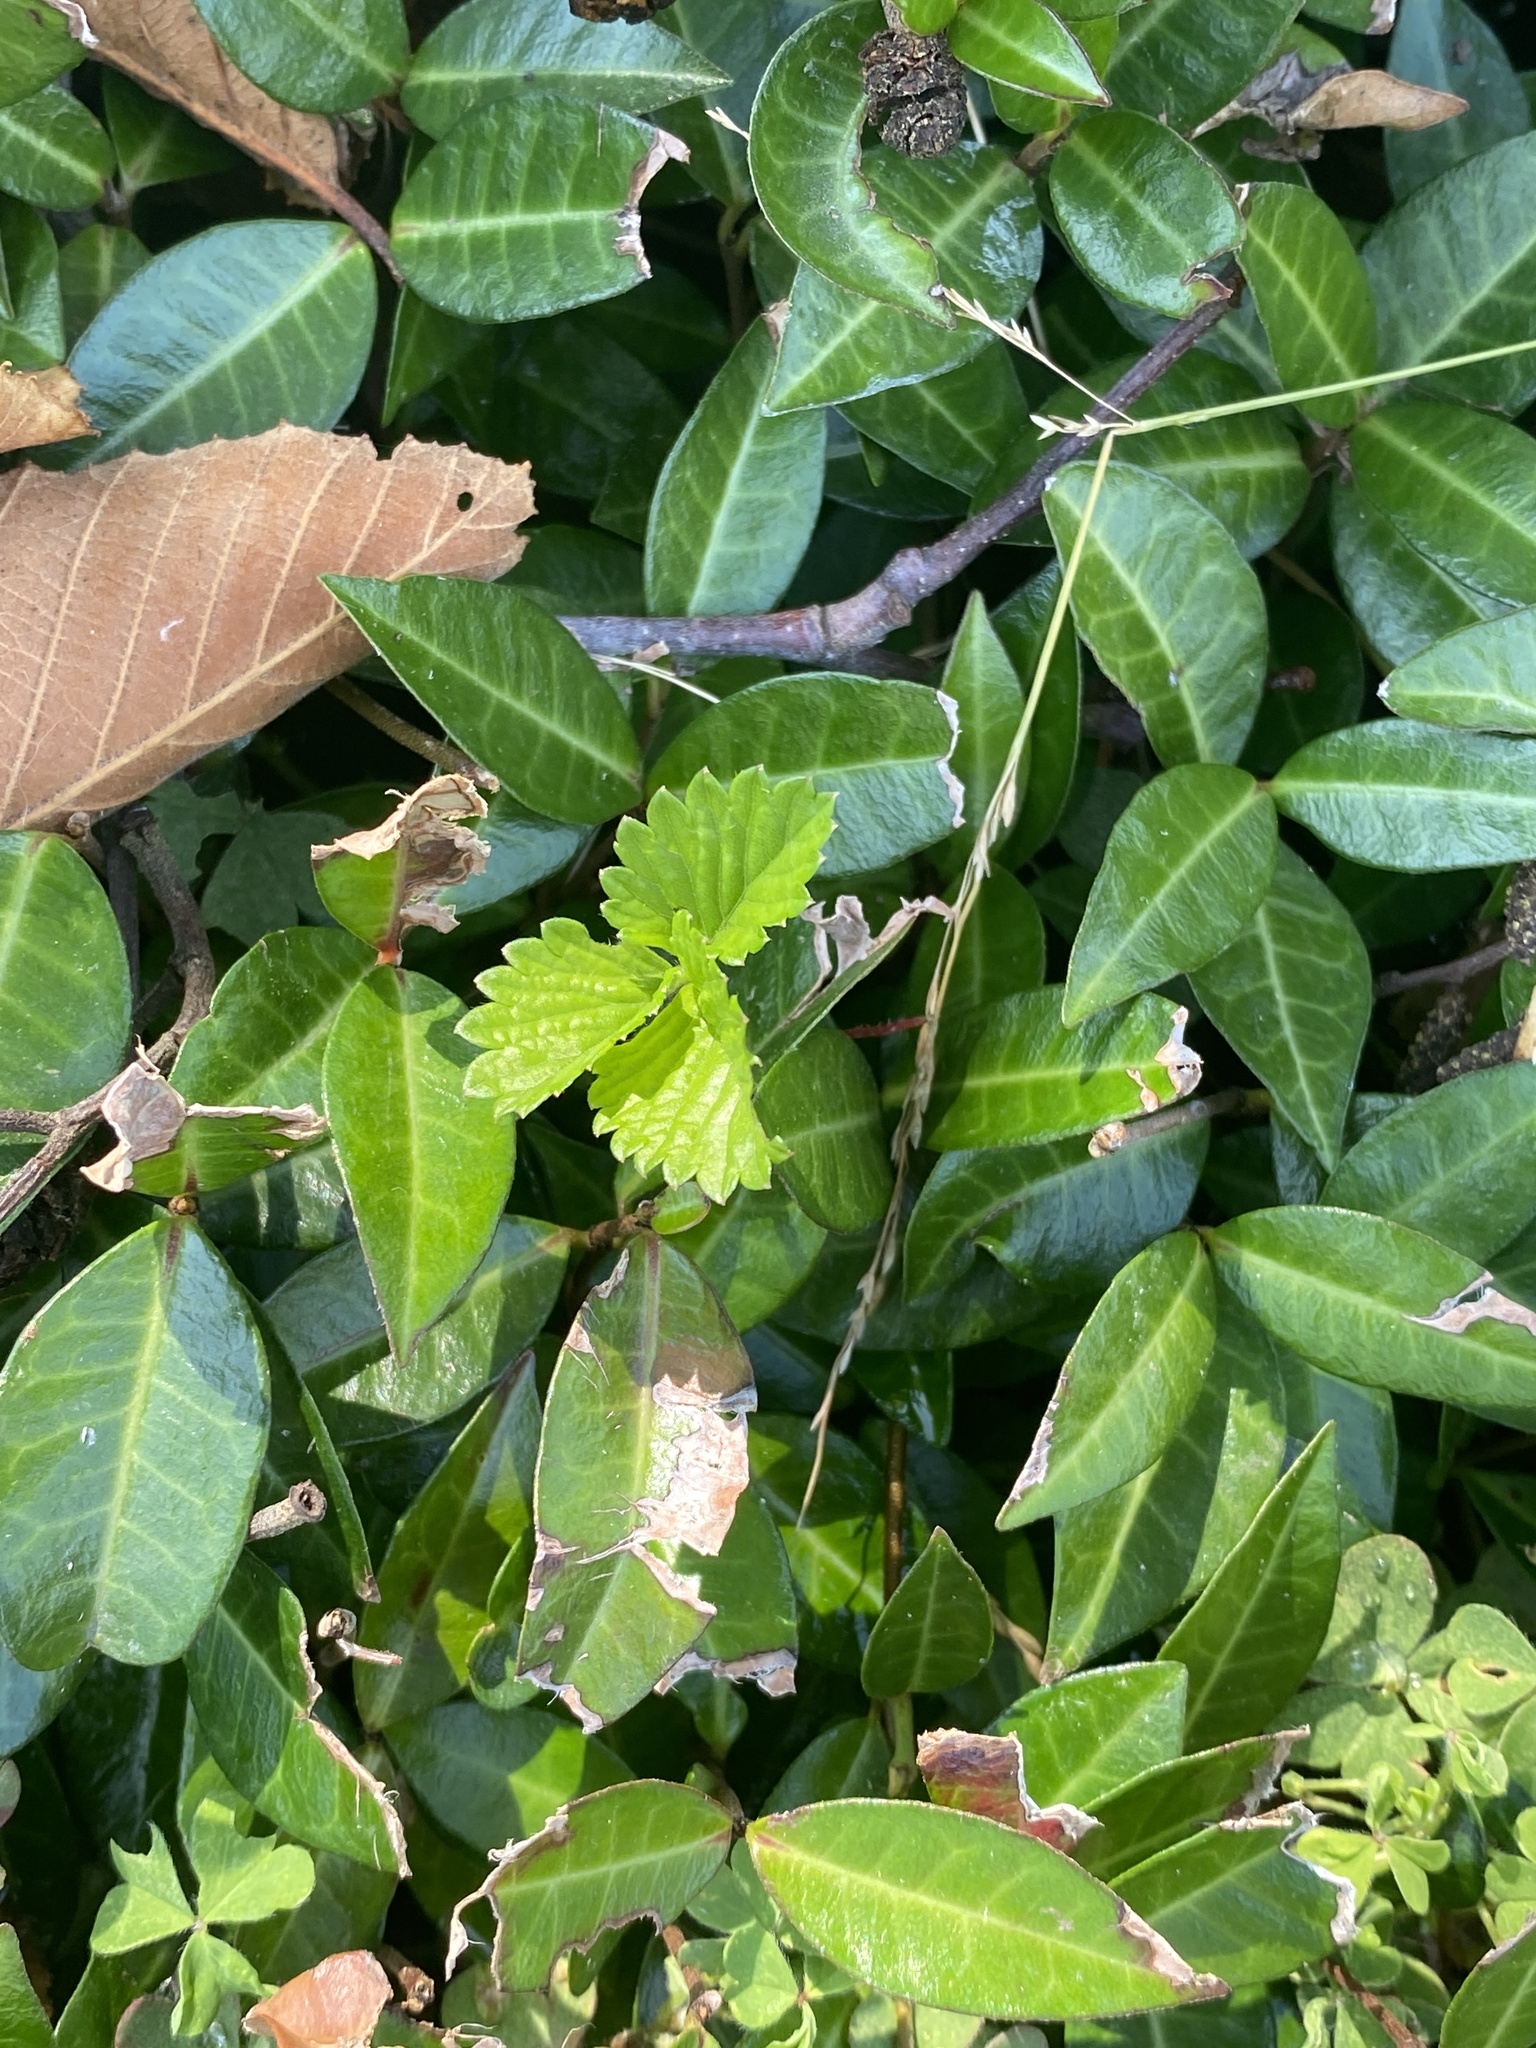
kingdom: Plantae
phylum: Tracheophyta
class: Magnoliopsida
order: Rosales
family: Rosaceae
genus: Fragaria
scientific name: Fragaria vesca
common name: Wild strawberry
